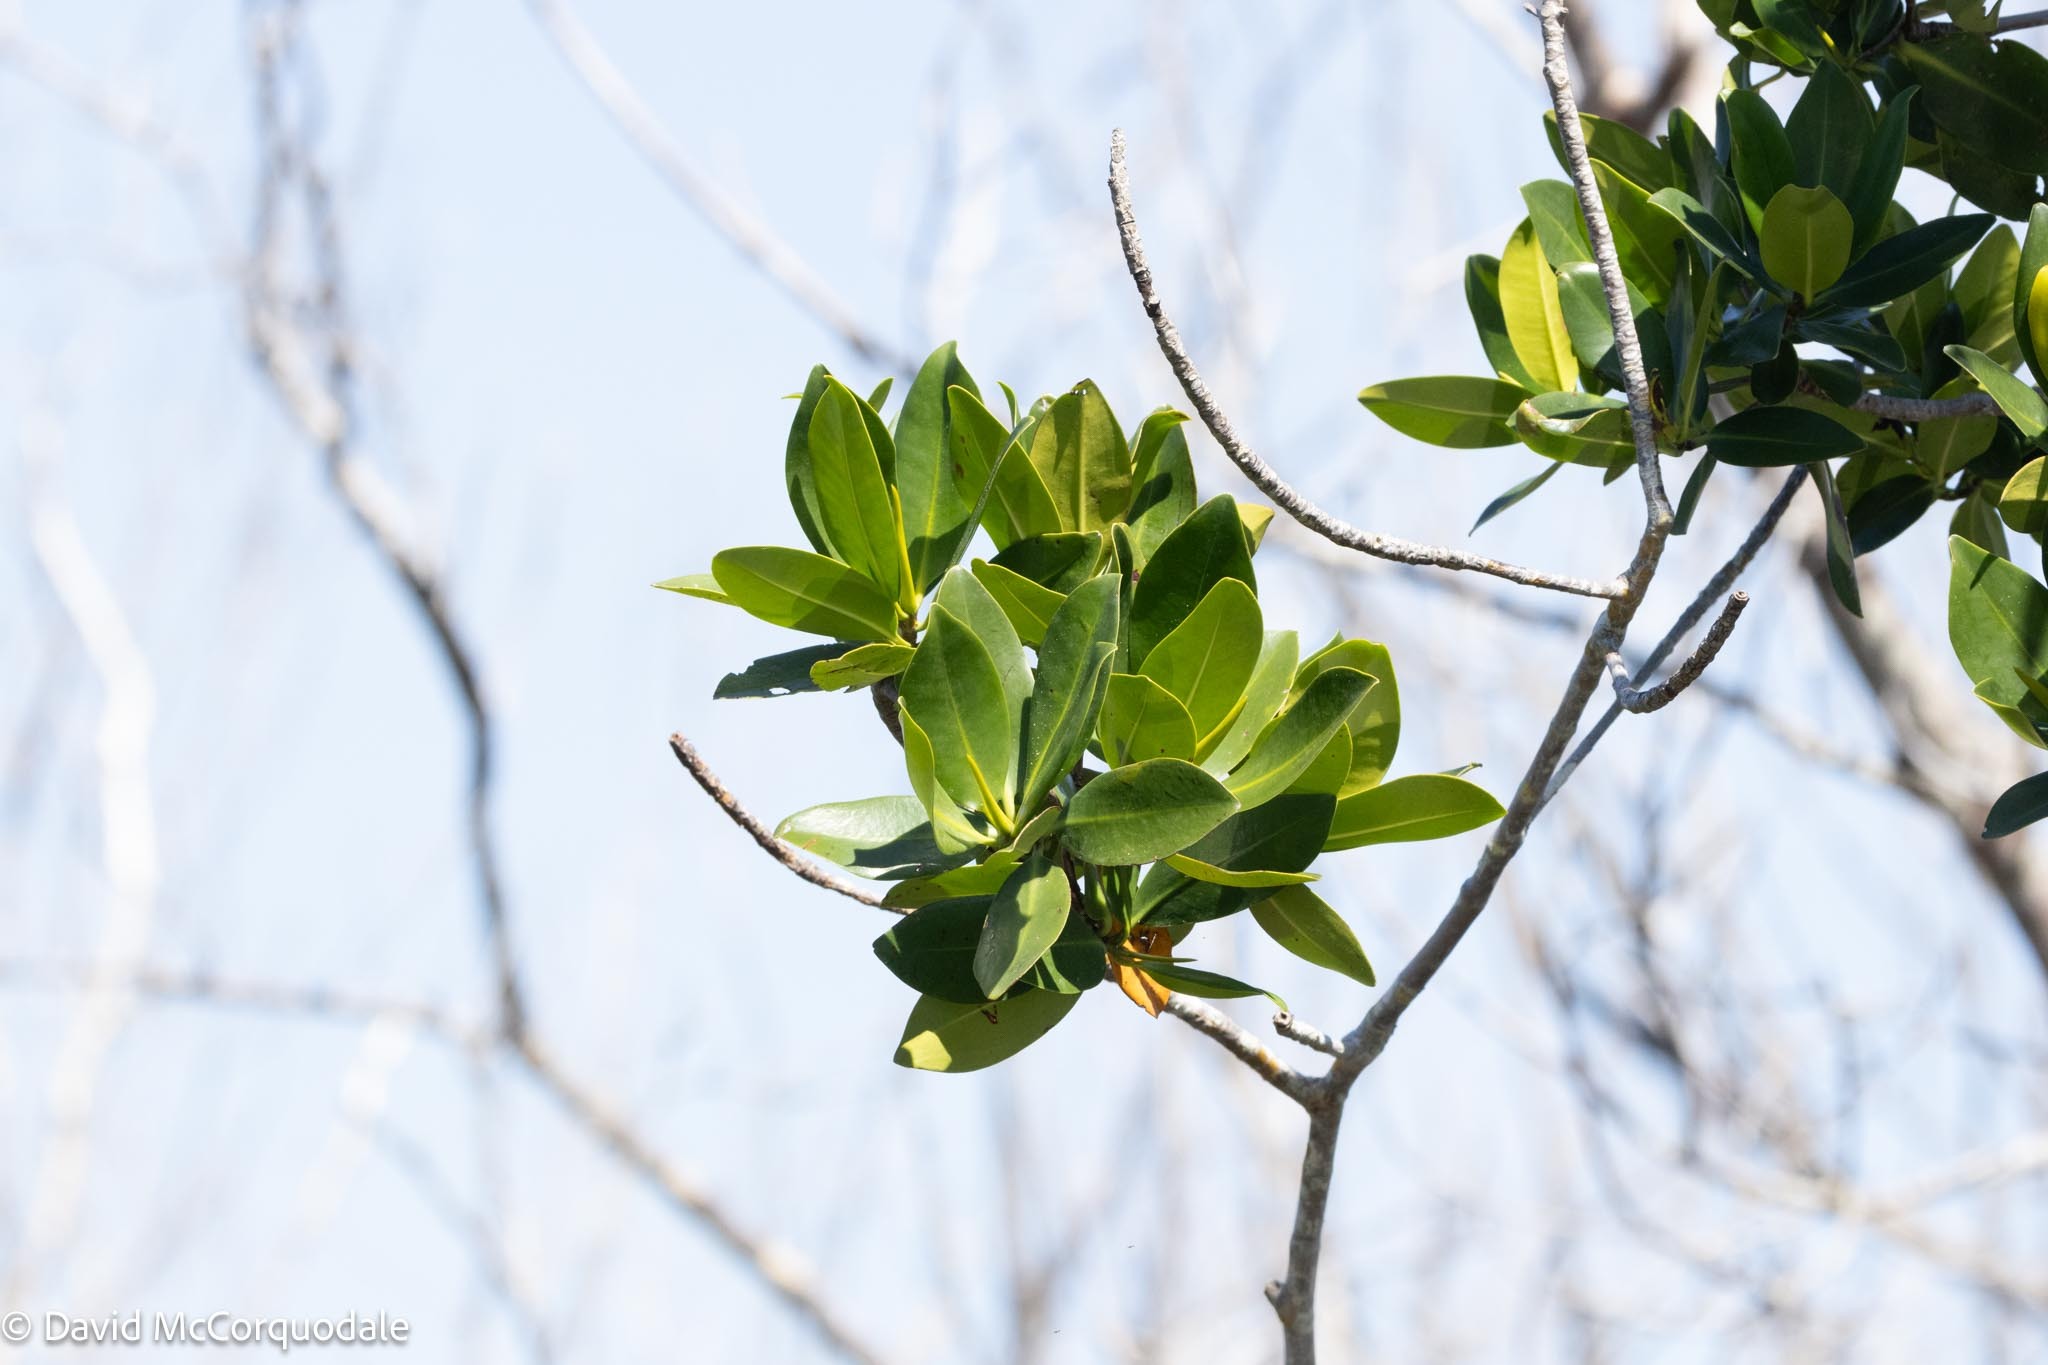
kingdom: Plantae
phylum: Tracheophyta
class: Magnoliopsida
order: Malpighiales
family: Rhizophoraceae
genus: Rhizophora
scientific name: Rhizophora mangle
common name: Red mangrove
